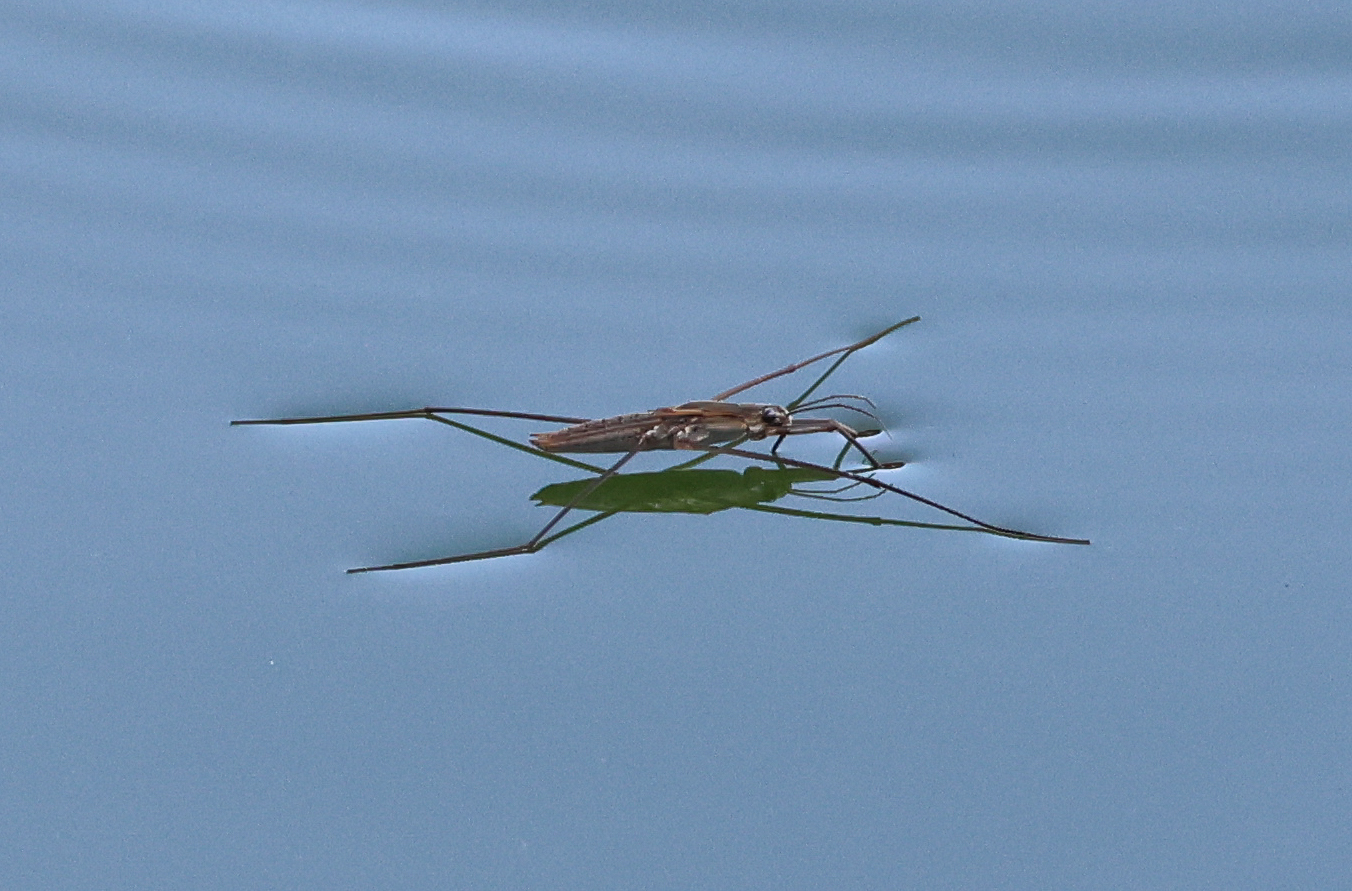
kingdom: Animalia
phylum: Arthropoda
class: Insecta
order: Hemiptera
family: Gerridae
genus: Aquarius
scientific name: Aquarius adelaidis
